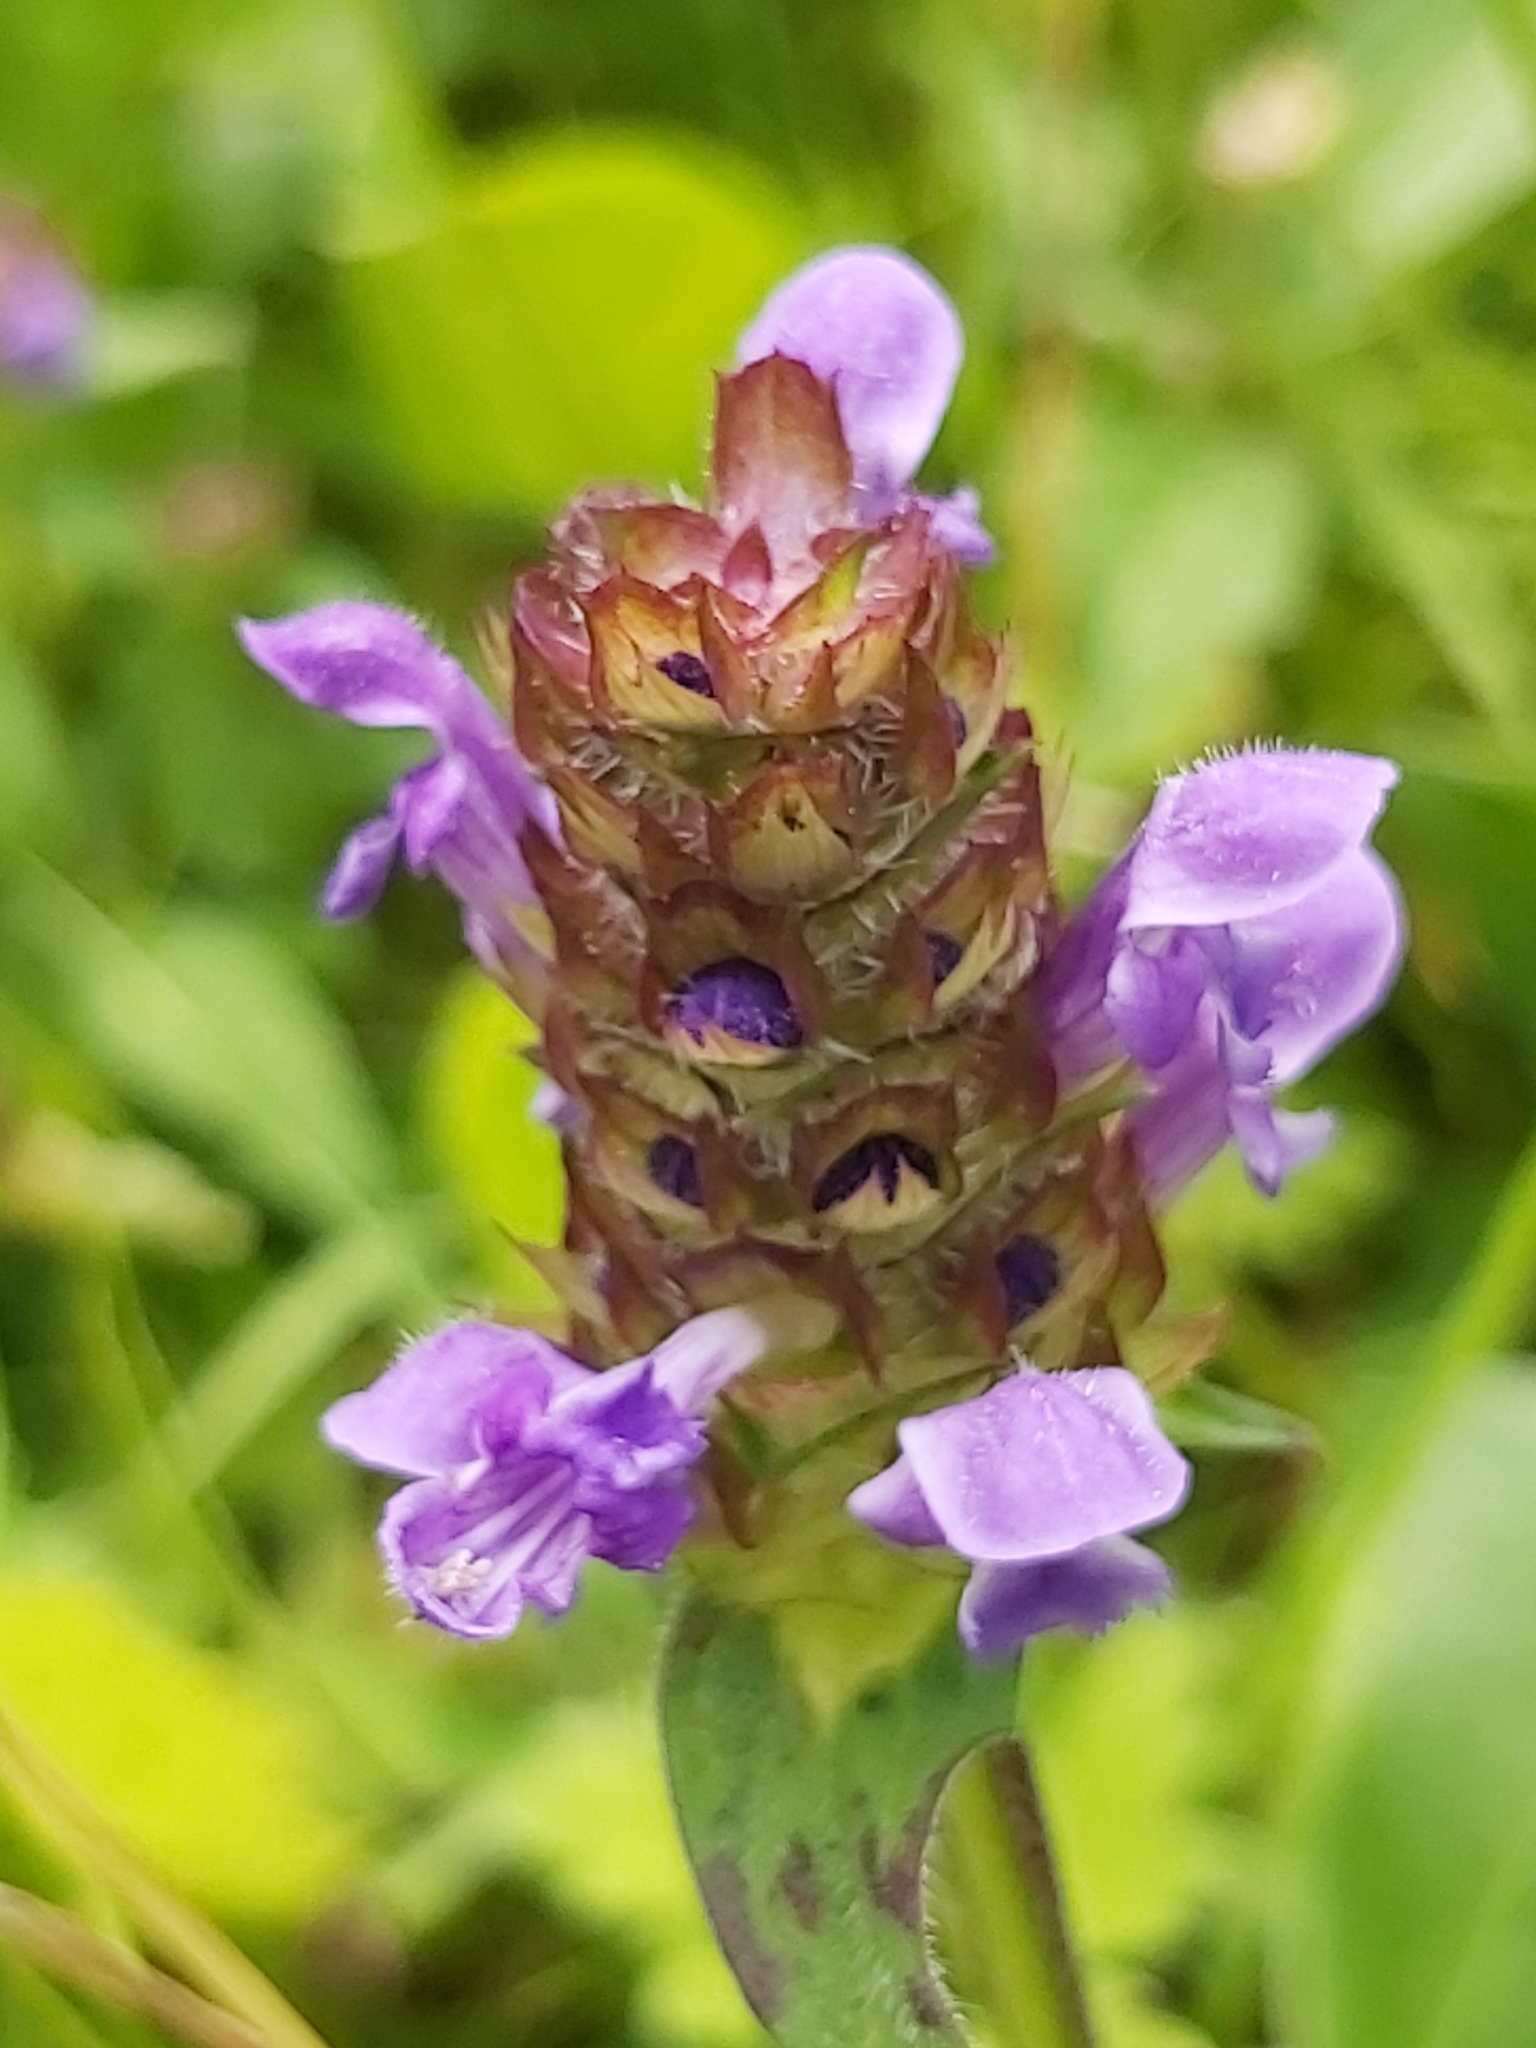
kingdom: Plantae
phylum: Tracheophyta
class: Magnoliopsida
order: Lamiales
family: Lamiaceae
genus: Prunella
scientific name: Prunella vulgaris
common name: Heal-all
